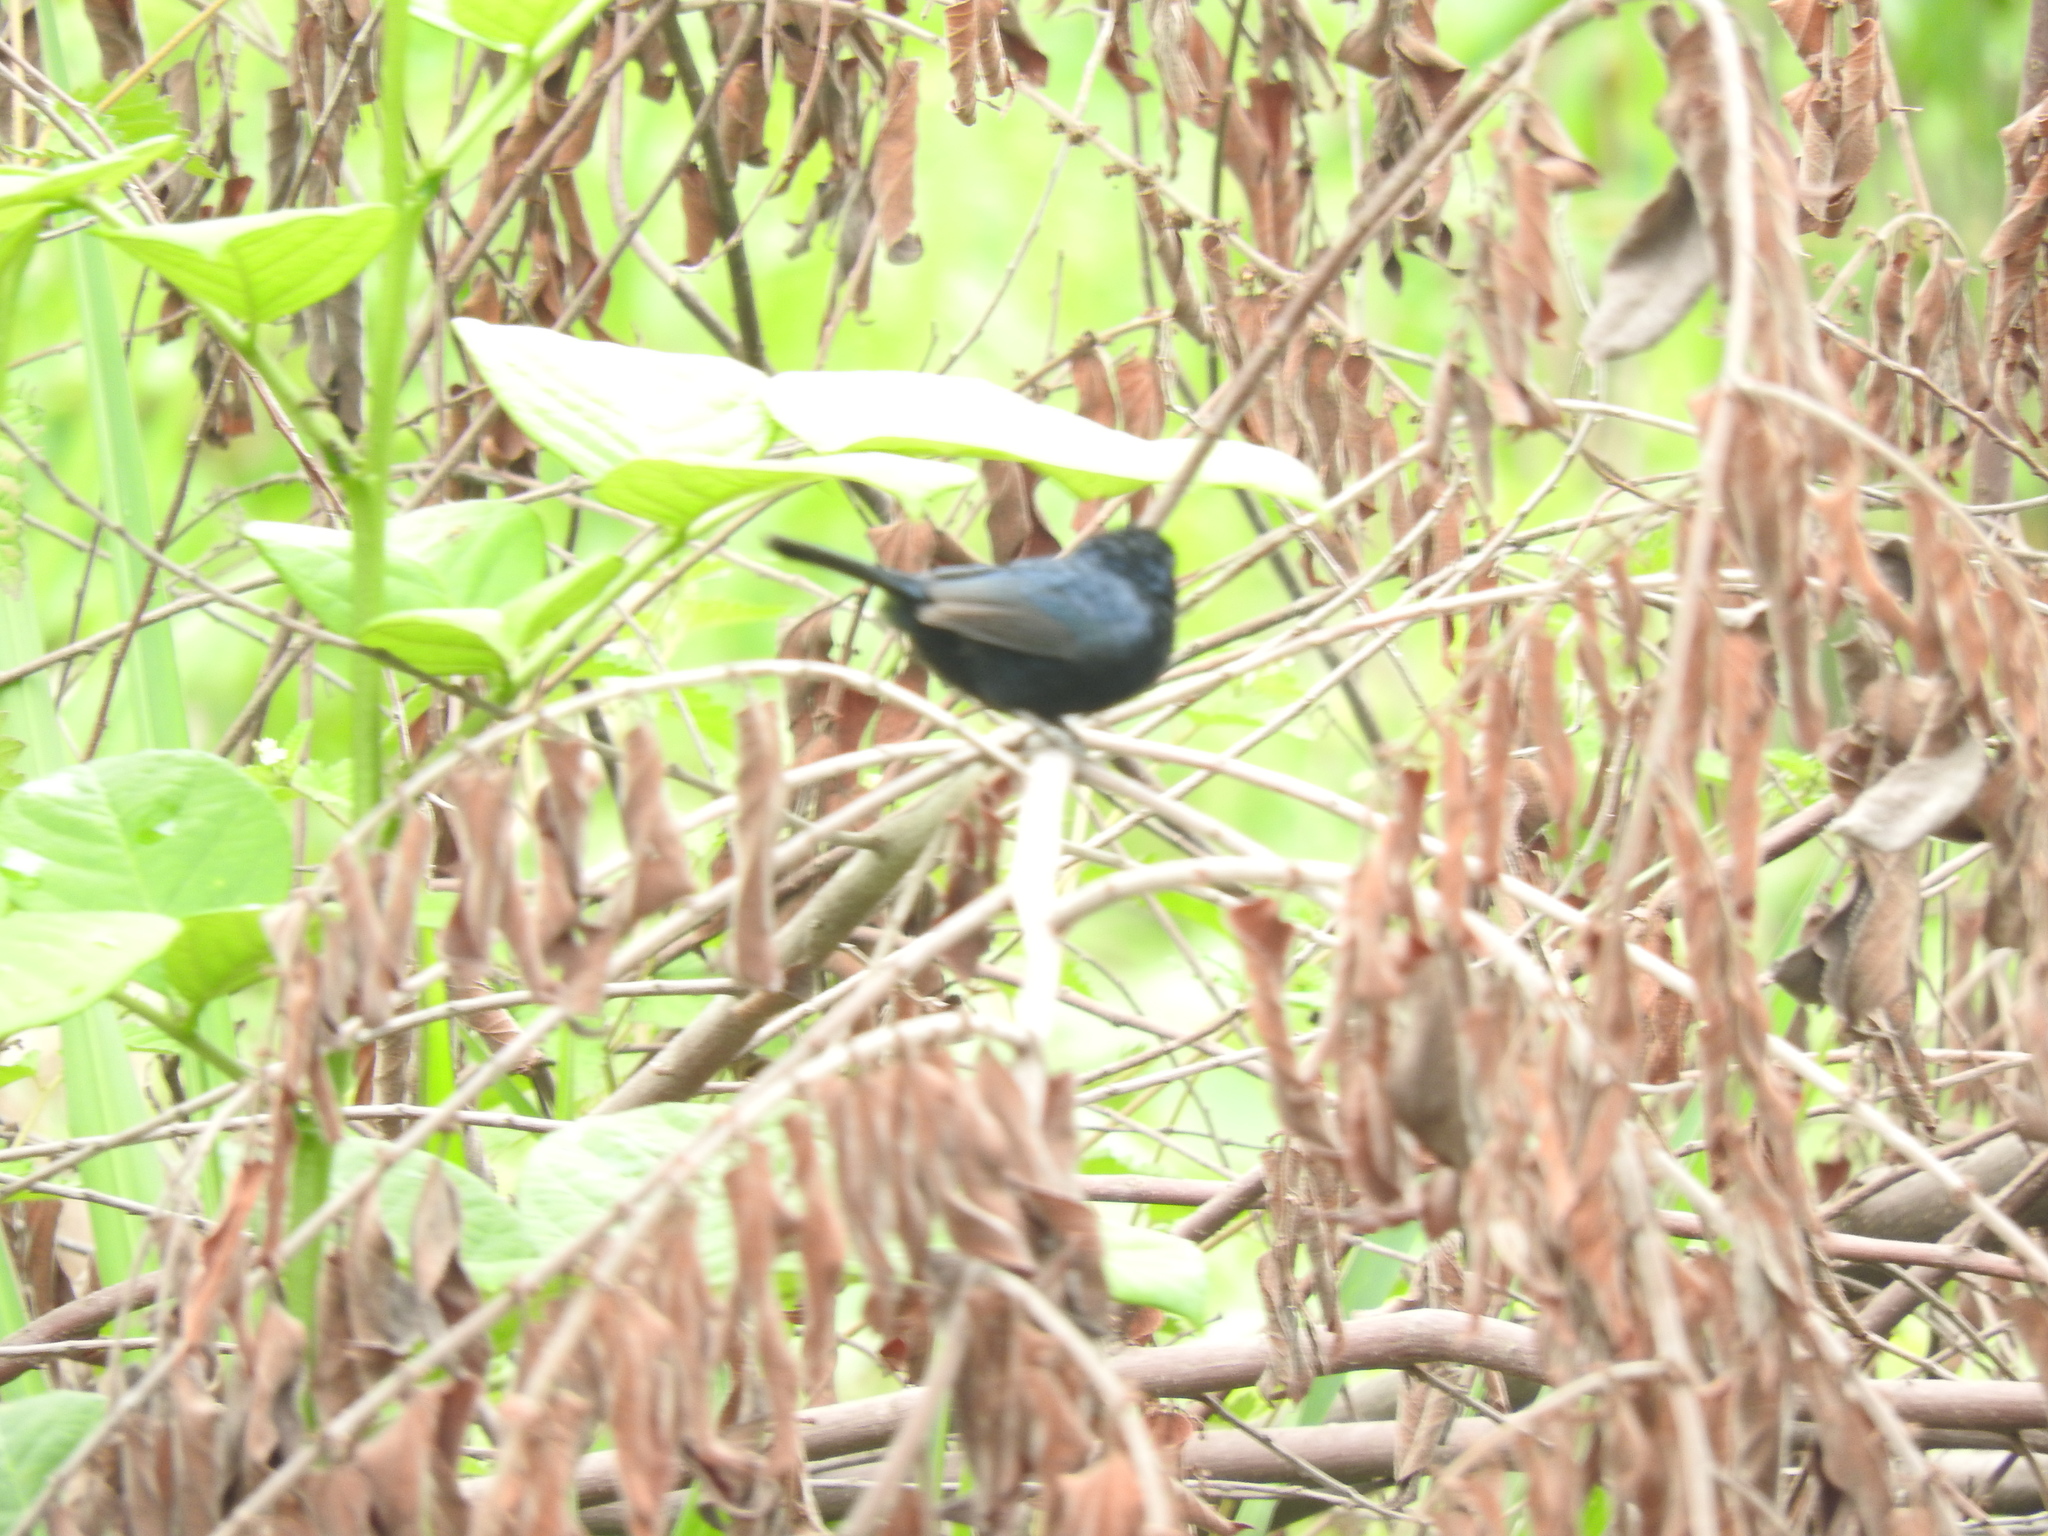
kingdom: Animalia
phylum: Chordata
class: Aves
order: Passeriformes
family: Thraupidae
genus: Volatinia
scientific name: Volatinia jacarina
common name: Blue-black grassquit
